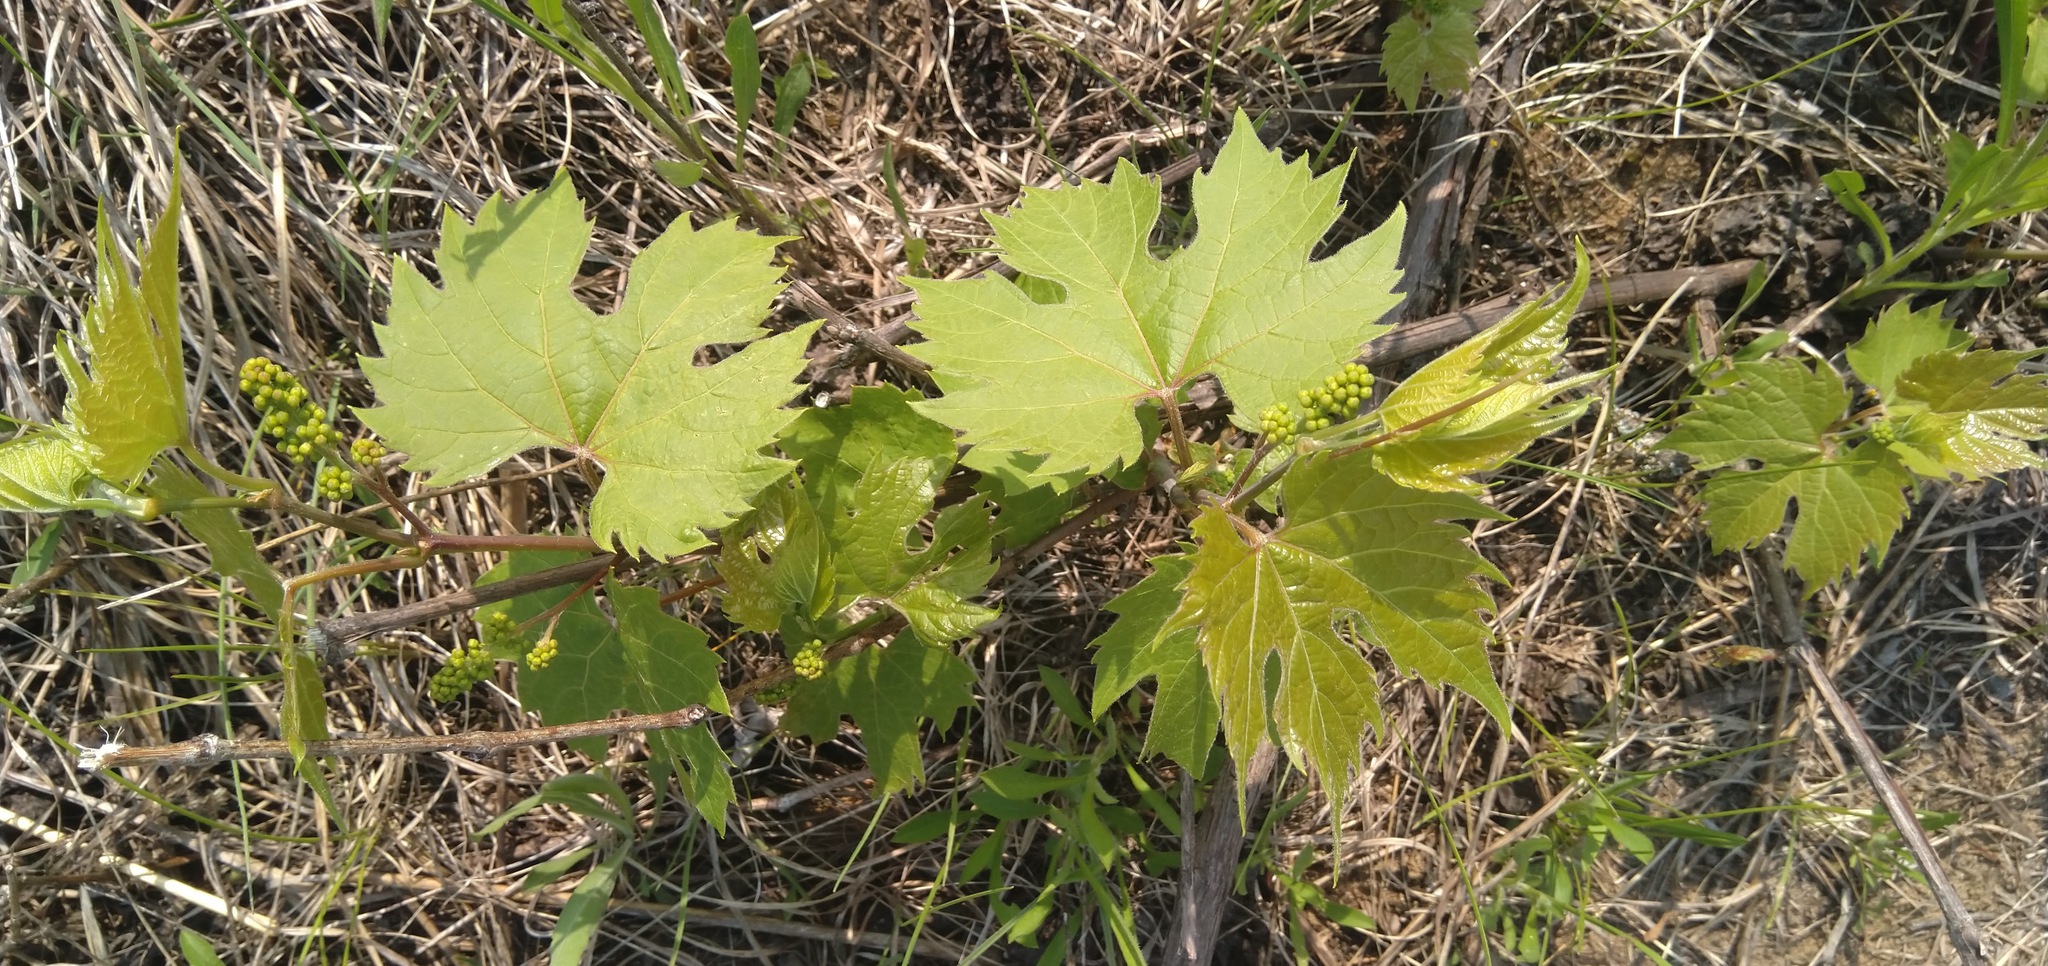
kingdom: Plantae
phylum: Tracheophyta
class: Magnoliopsida
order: Vitales
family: Vitaceae
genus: Vitis
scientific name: Vitis riparia
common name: Frost grape
